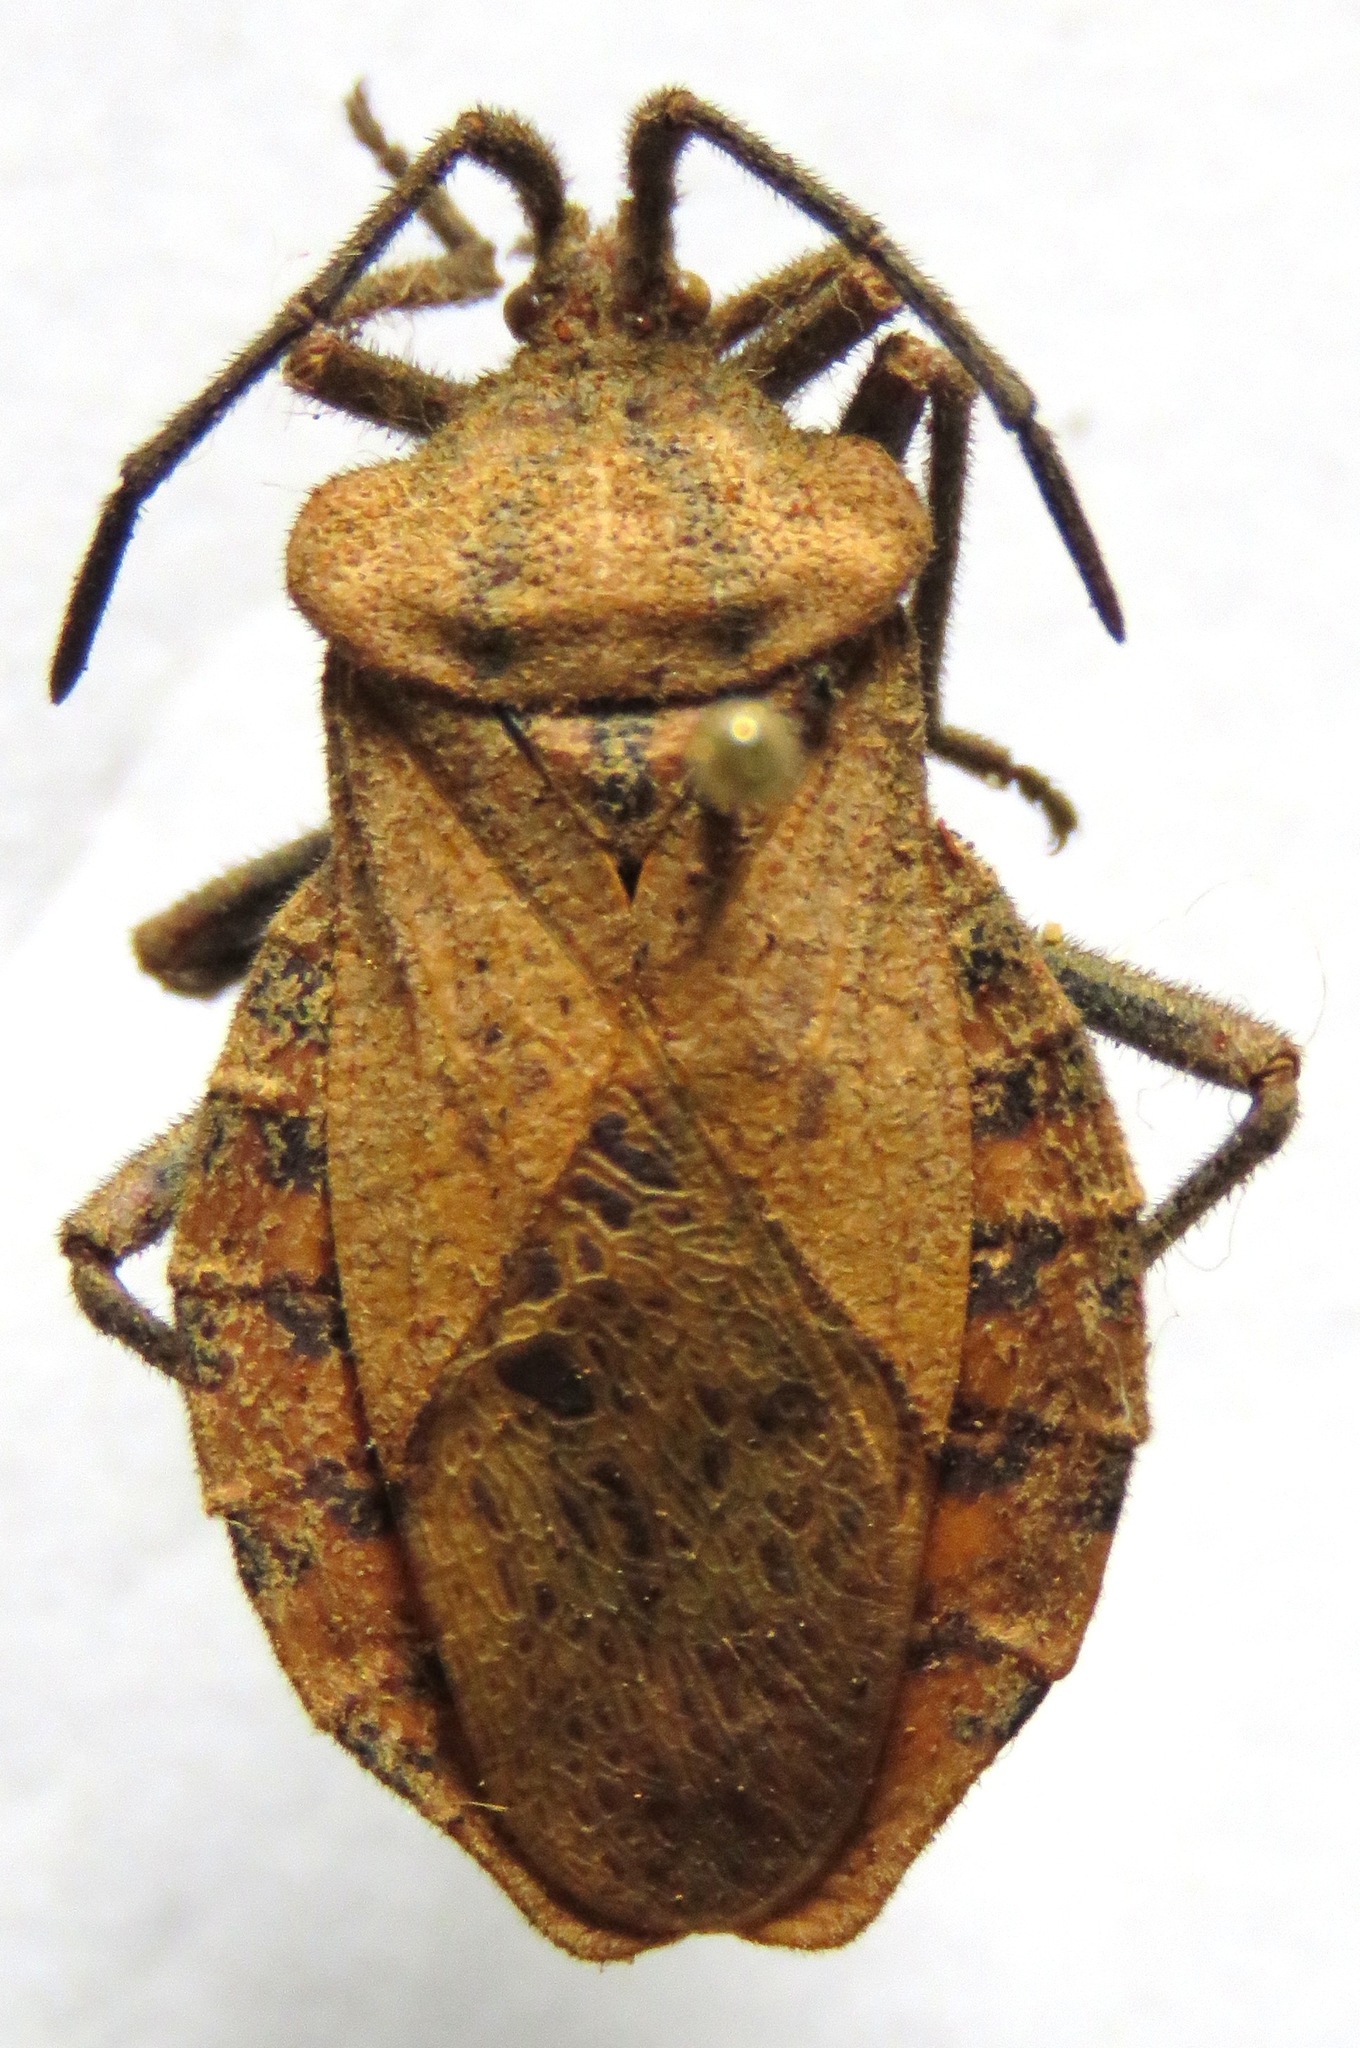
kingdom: Animalia
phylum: Arthropoda
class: Insecta
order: Hemiptera
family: Coreidae
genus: Spartocera
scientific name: Spartocera fusca
